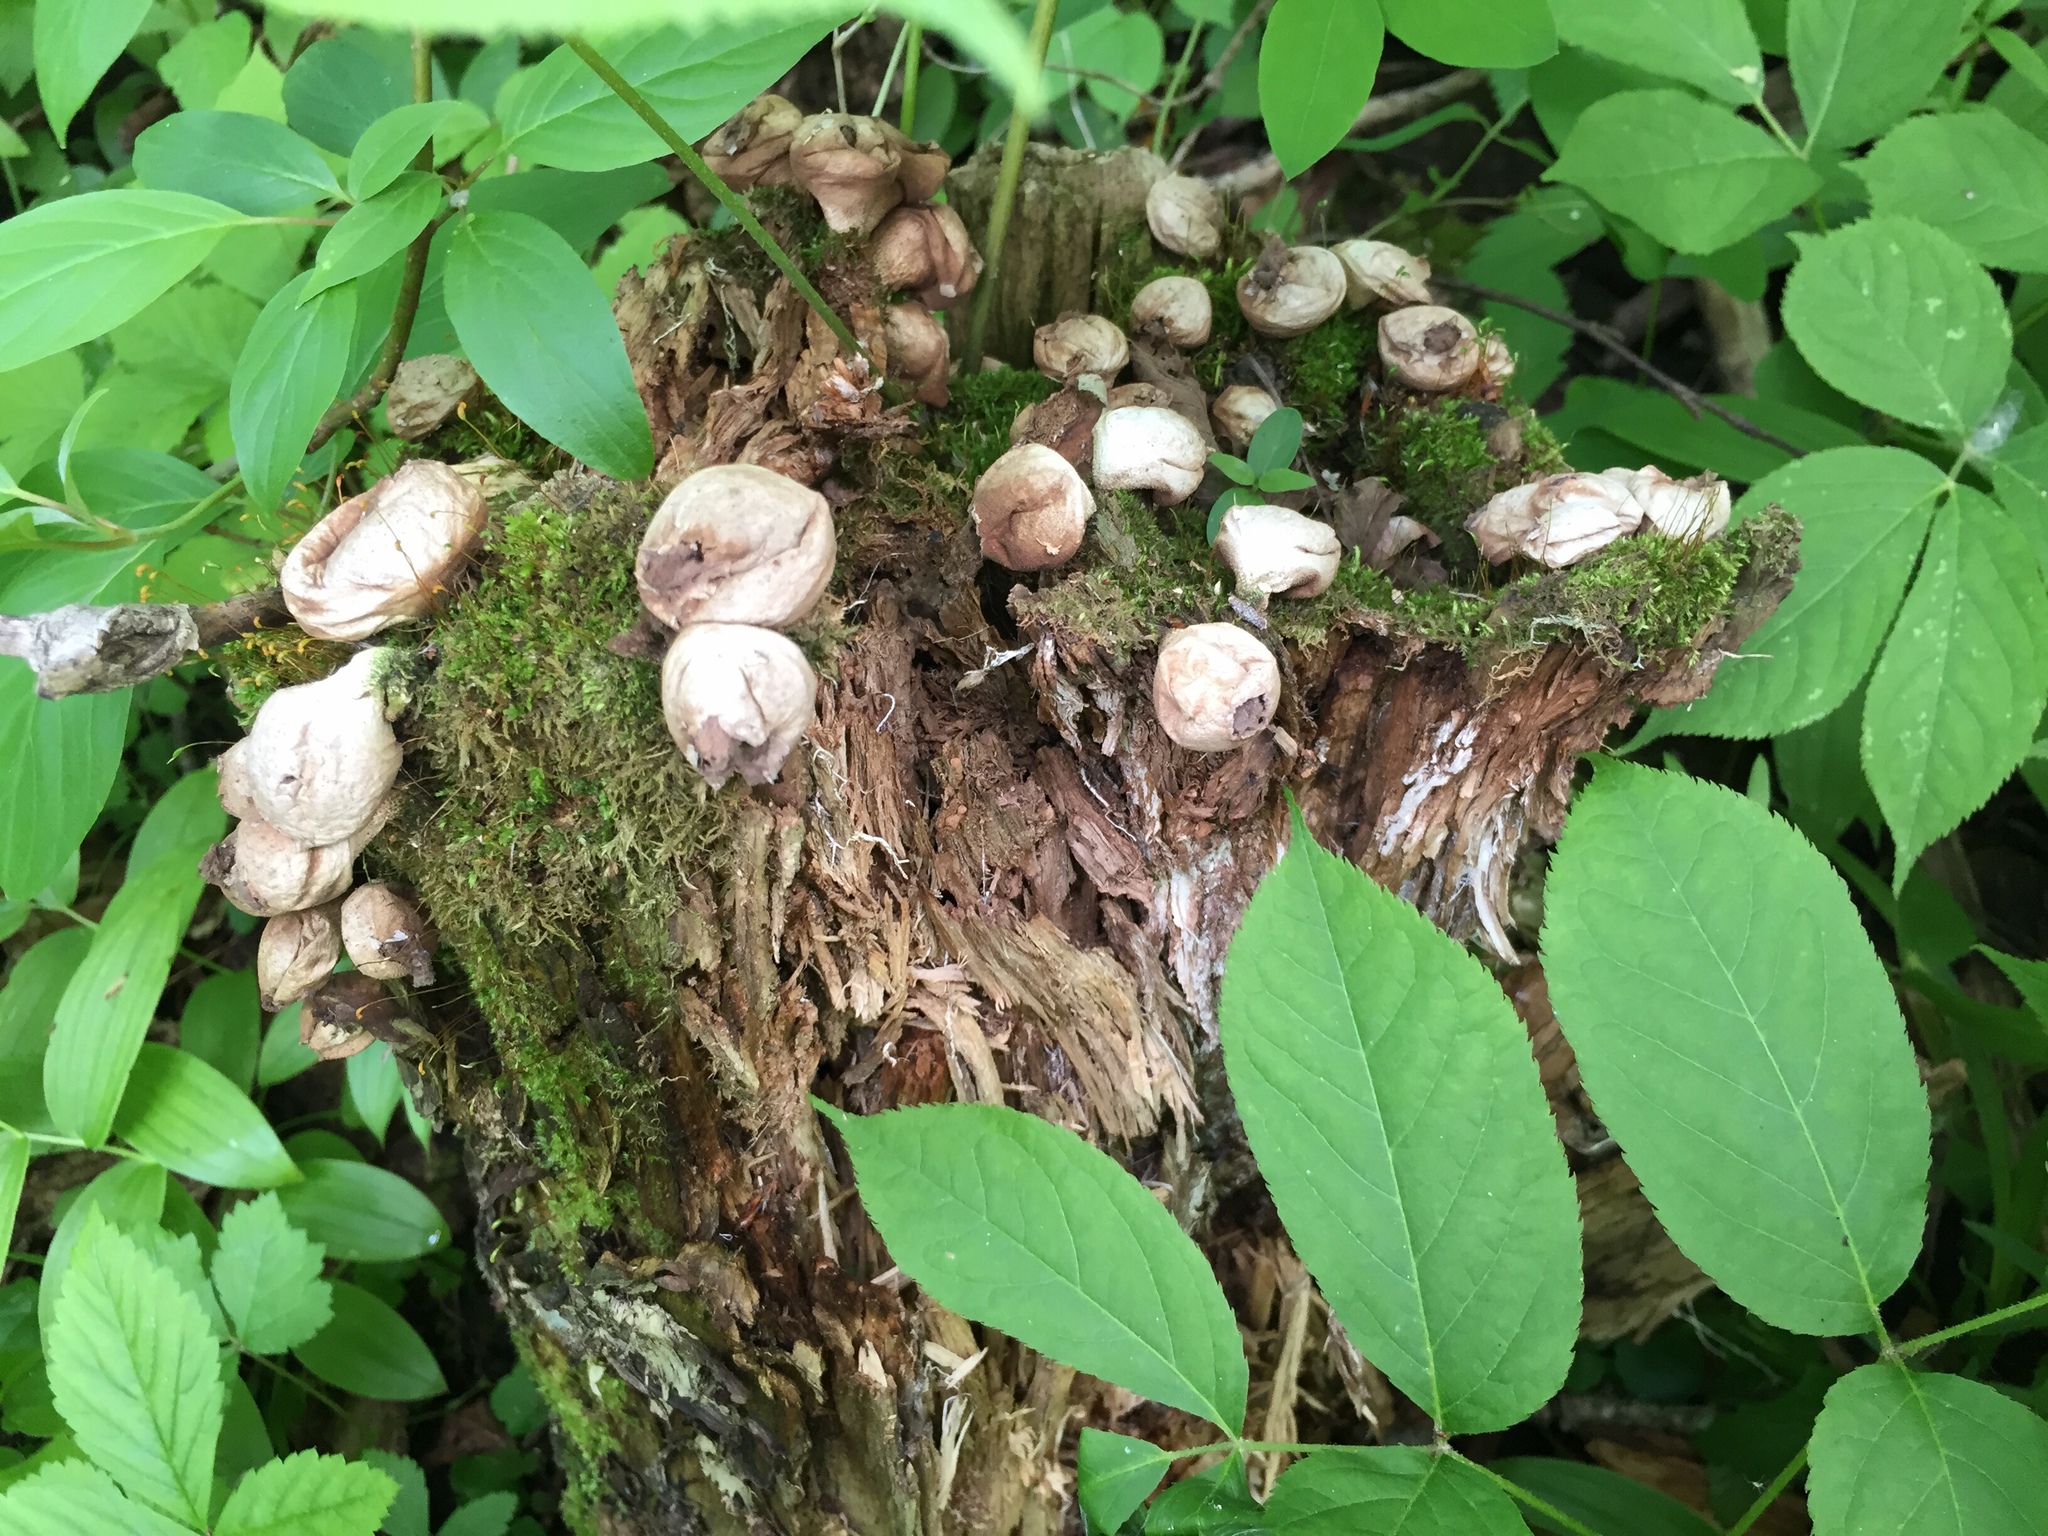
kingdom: Fungi
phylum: Basidiomycota
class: Agaricomycetes
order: Agaricales
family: Lycoperdaceae
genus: Apioperdon
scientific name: Apioperdon pyriforme
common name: Pear-shaped puffball
